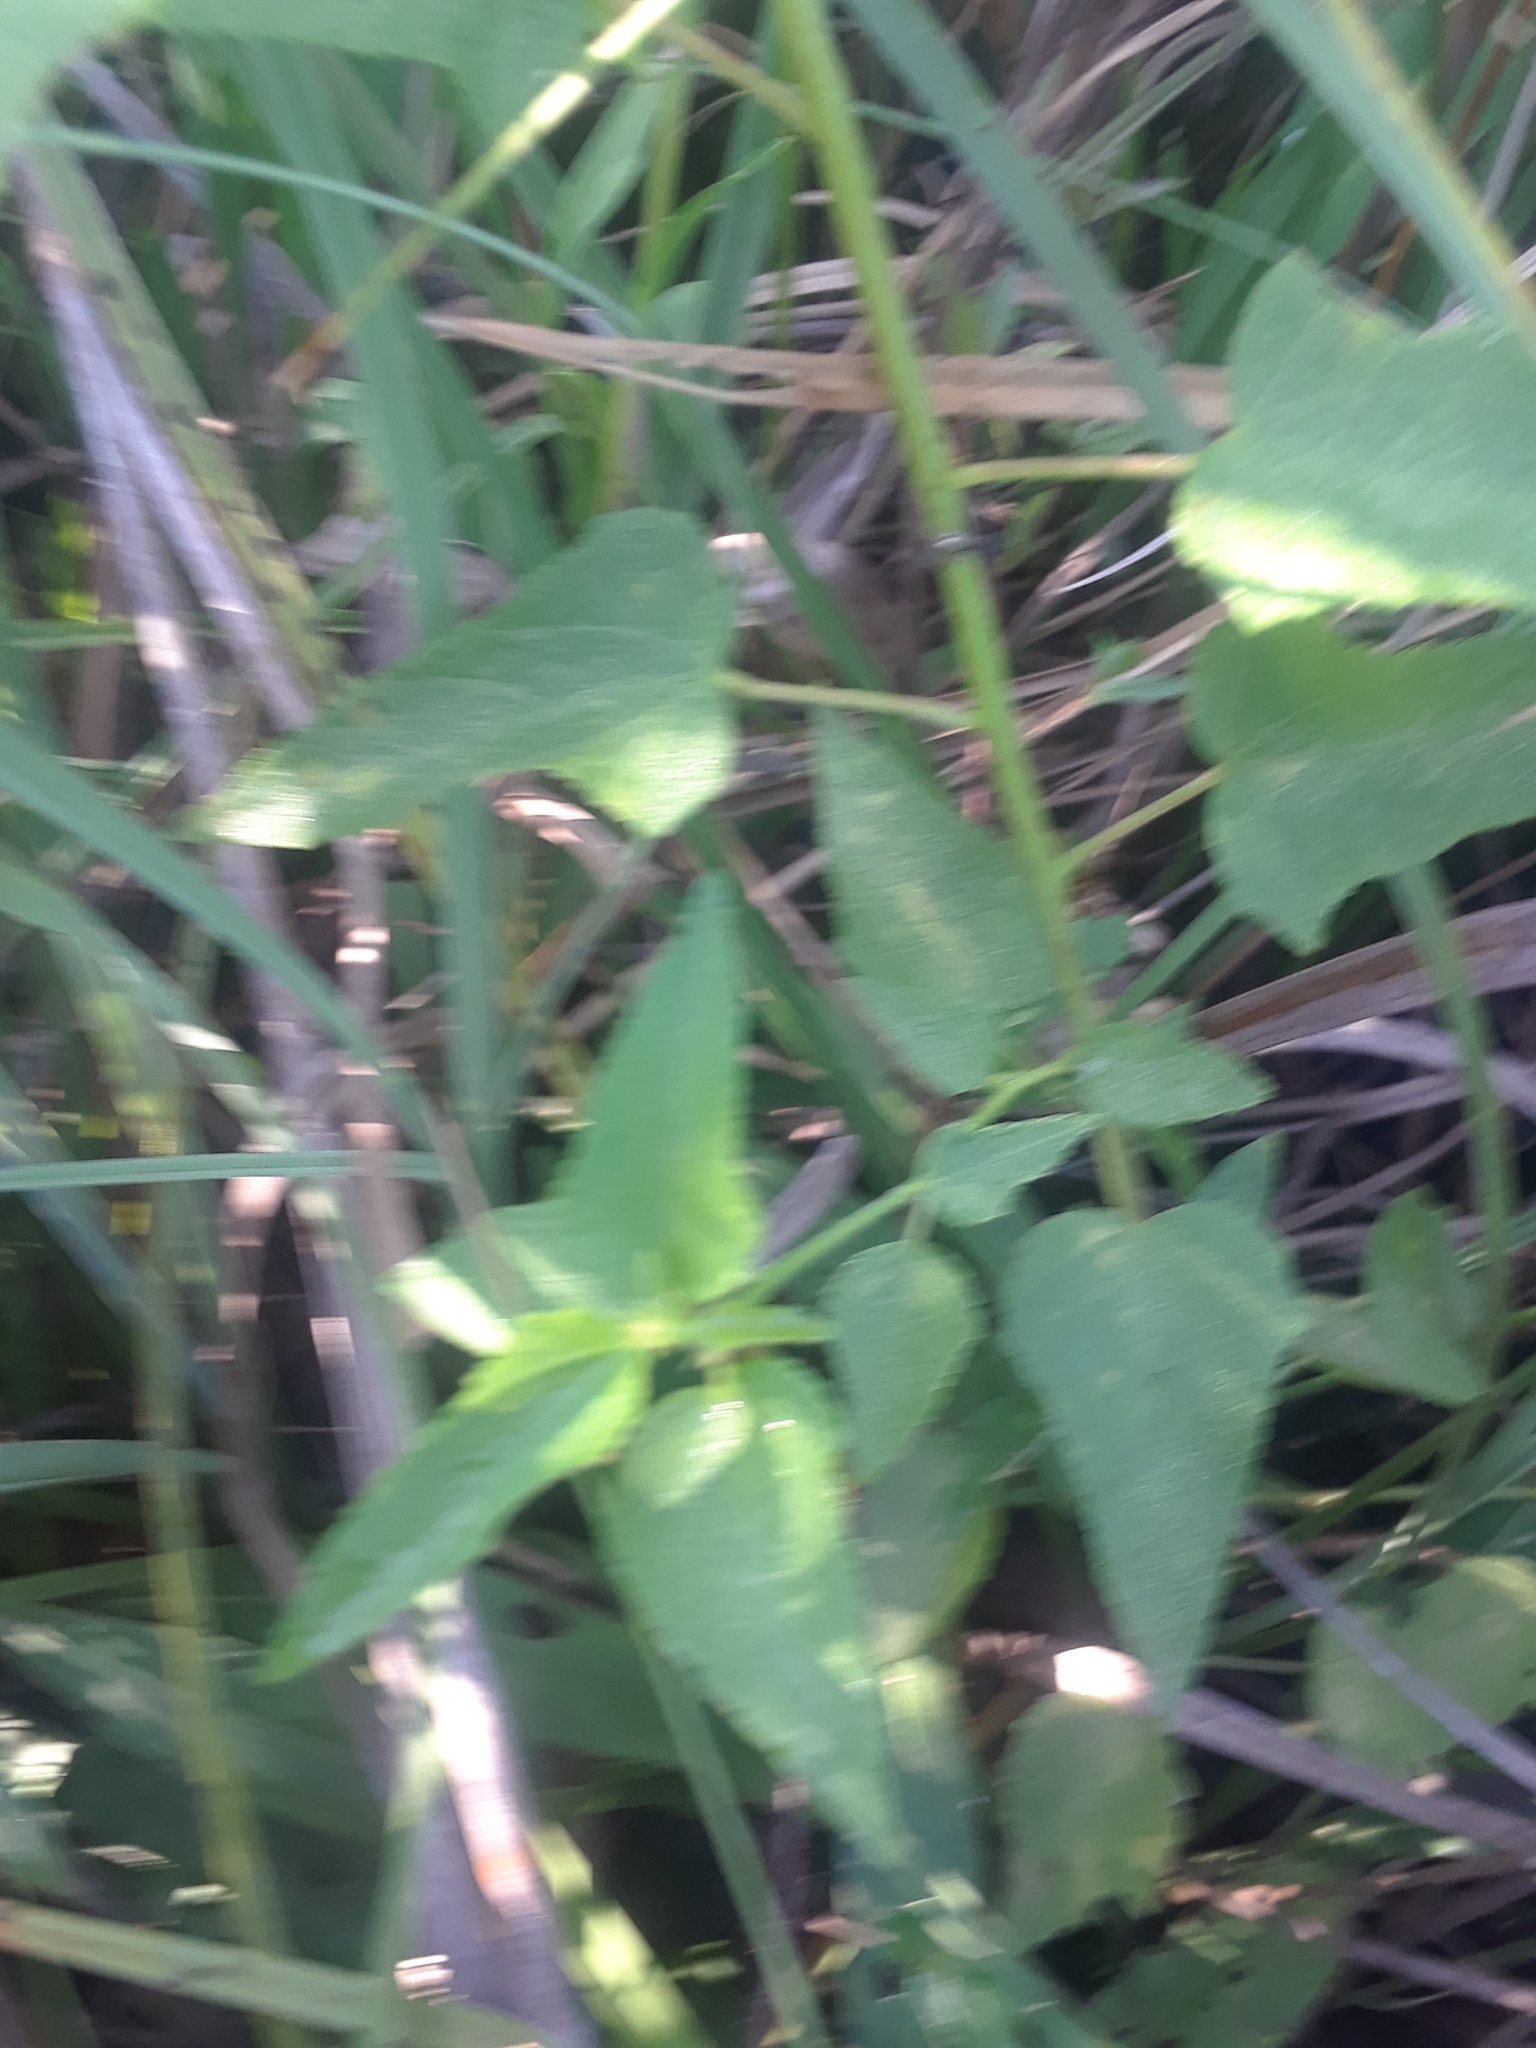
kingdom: Plantae
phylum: Tracheophyta
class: Magnoliopsida
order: Malvales
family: Malvaceae
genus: Kosteletzkya
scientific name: Kosteletzkya pentacarpos
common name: Virginia saltmarsh mallow
